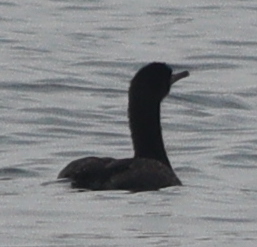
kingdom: Animalia
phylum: Chordata
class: Aves
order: Suliformes
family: Phalacrocoracidae
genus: Phalacrocorax
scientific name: Phalacrocorax aristotelis
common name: European shag
